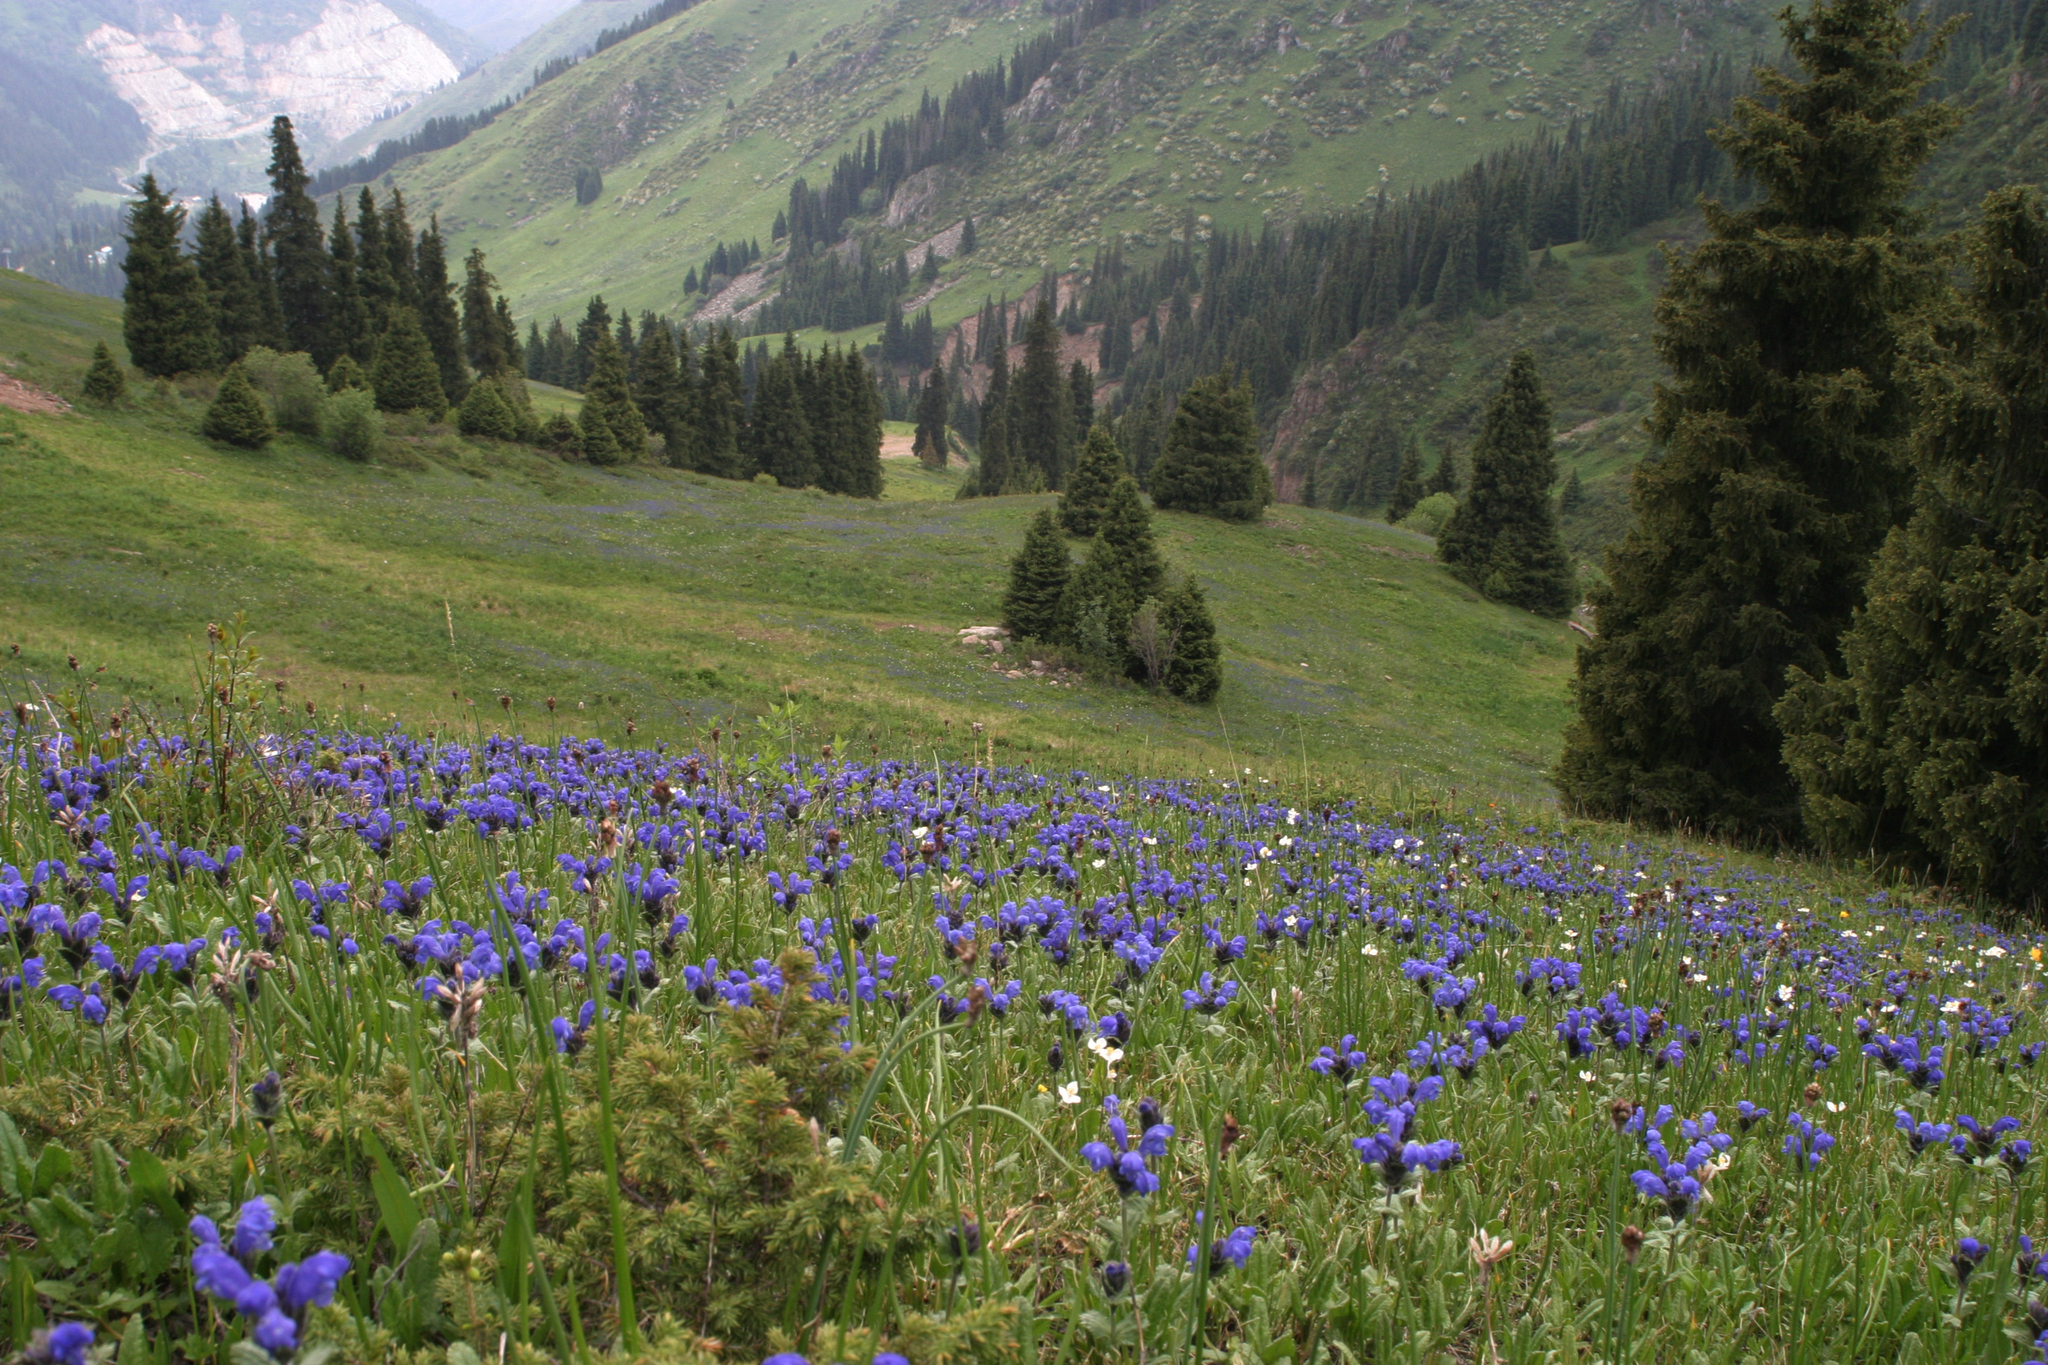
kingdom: Plantae
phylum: Tracheophyta
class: Pinopsida
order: Pinales
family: Pinaceae
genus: Picea
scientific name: Picea schrenkiana
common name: Asian spruce
